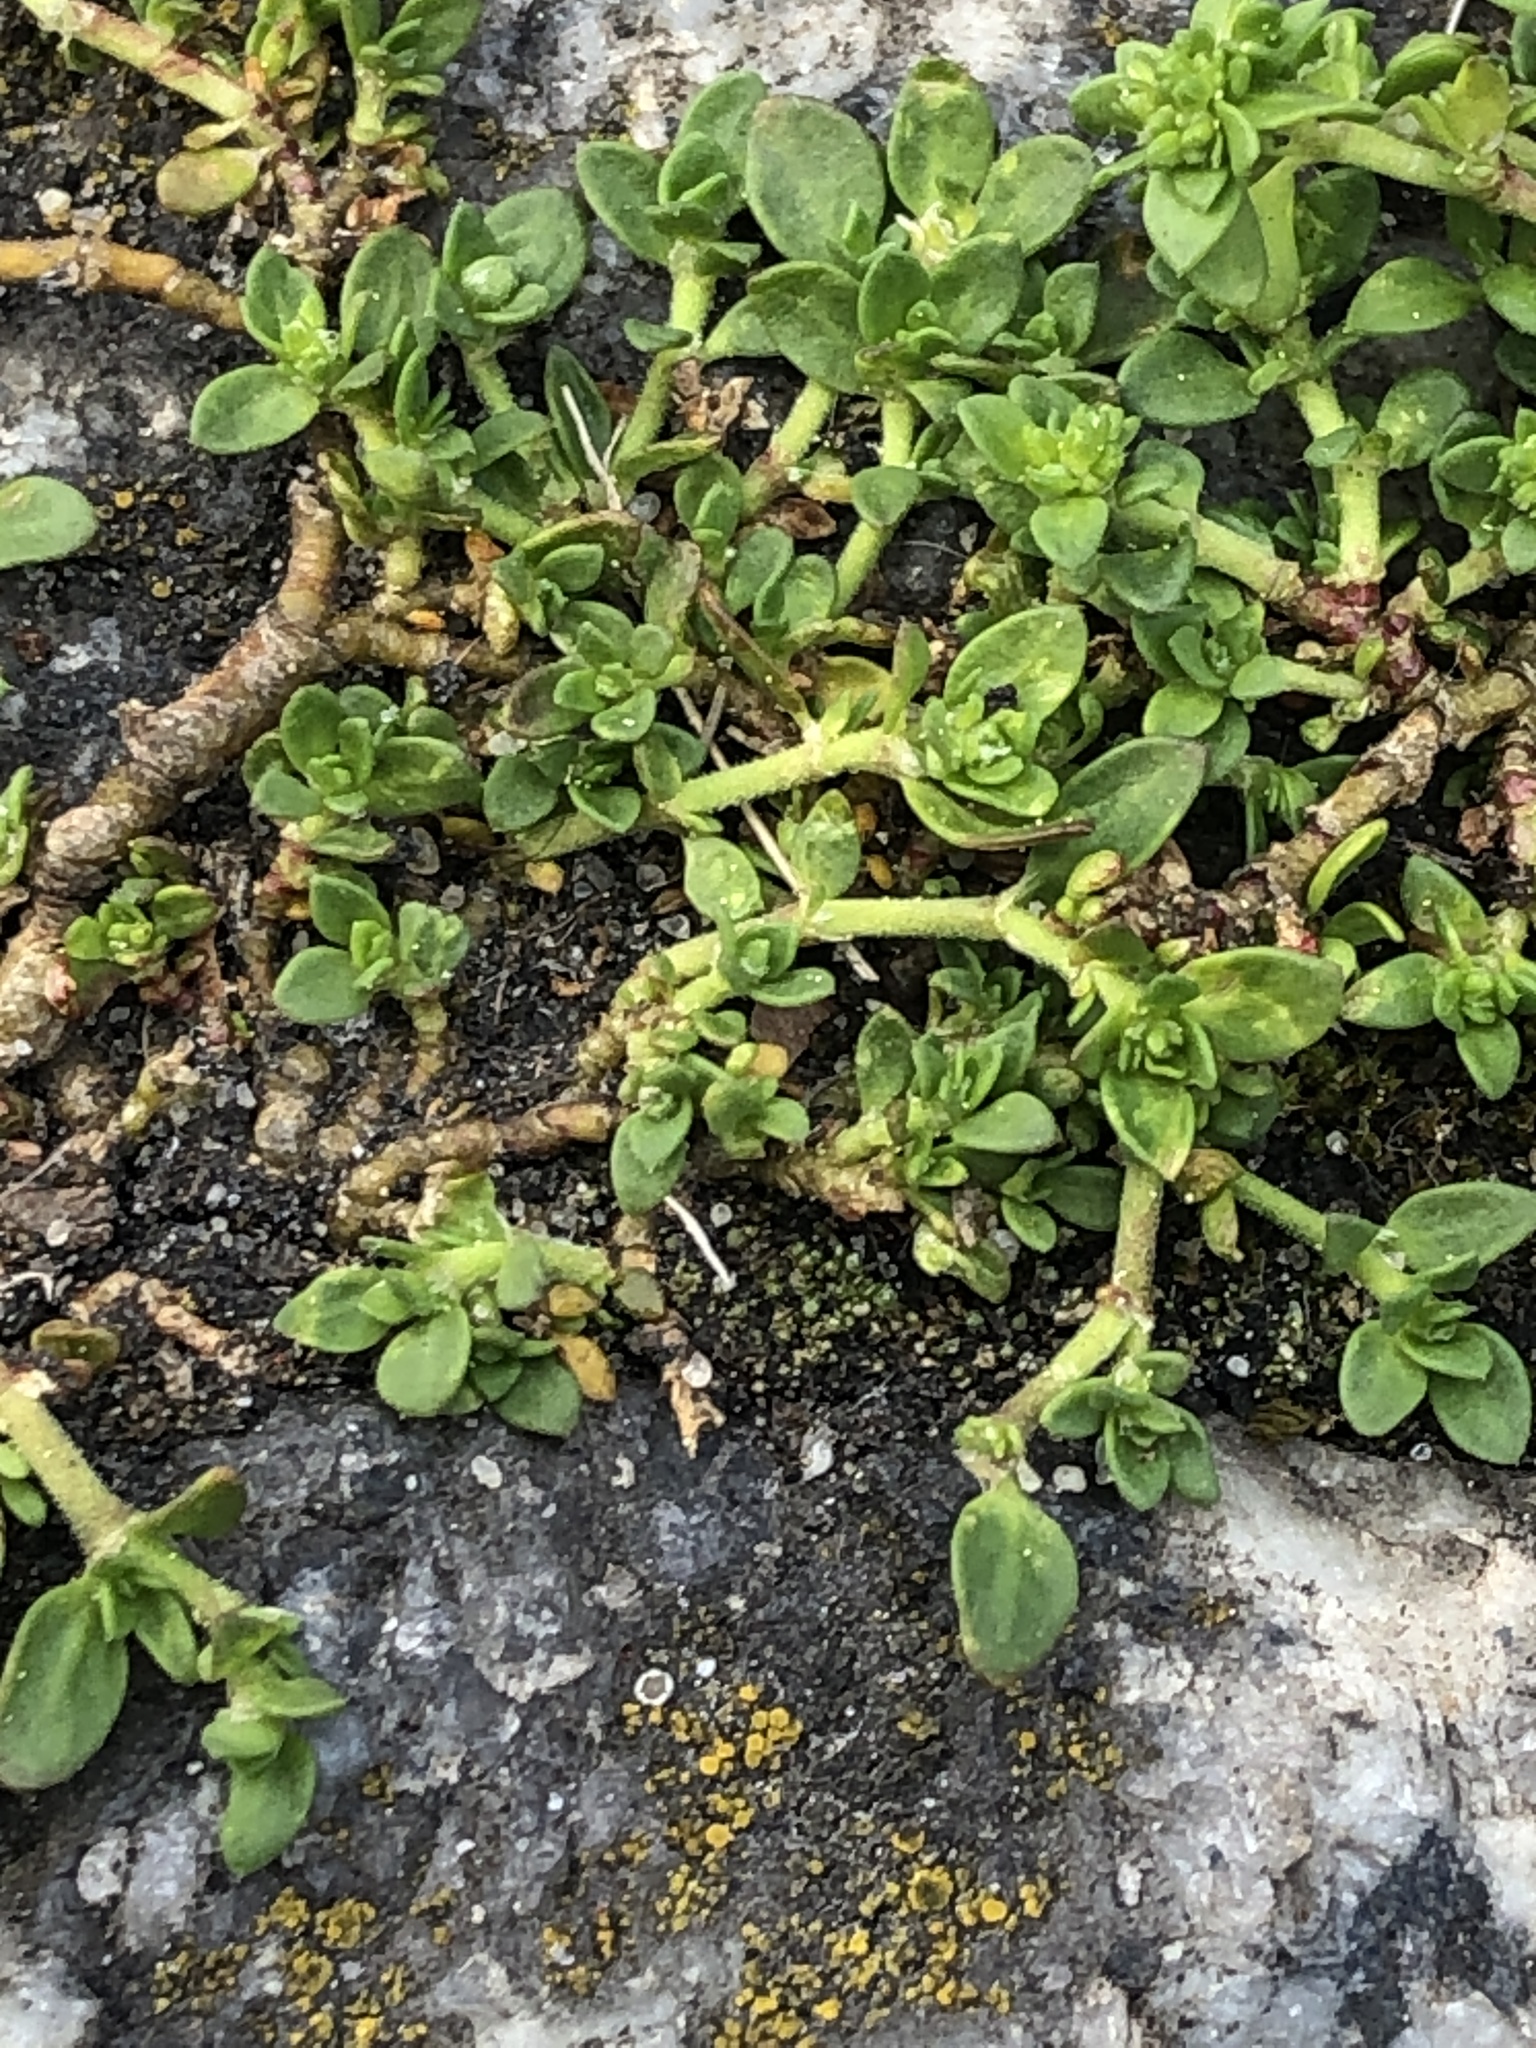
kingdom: Plantae
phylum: Tracheophyta
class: Magnoliopsida
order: Caryophyllales
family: Caryophyllaceae
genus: Herniaria
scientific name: Herniaria glabra
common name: Smooth rupturewort
